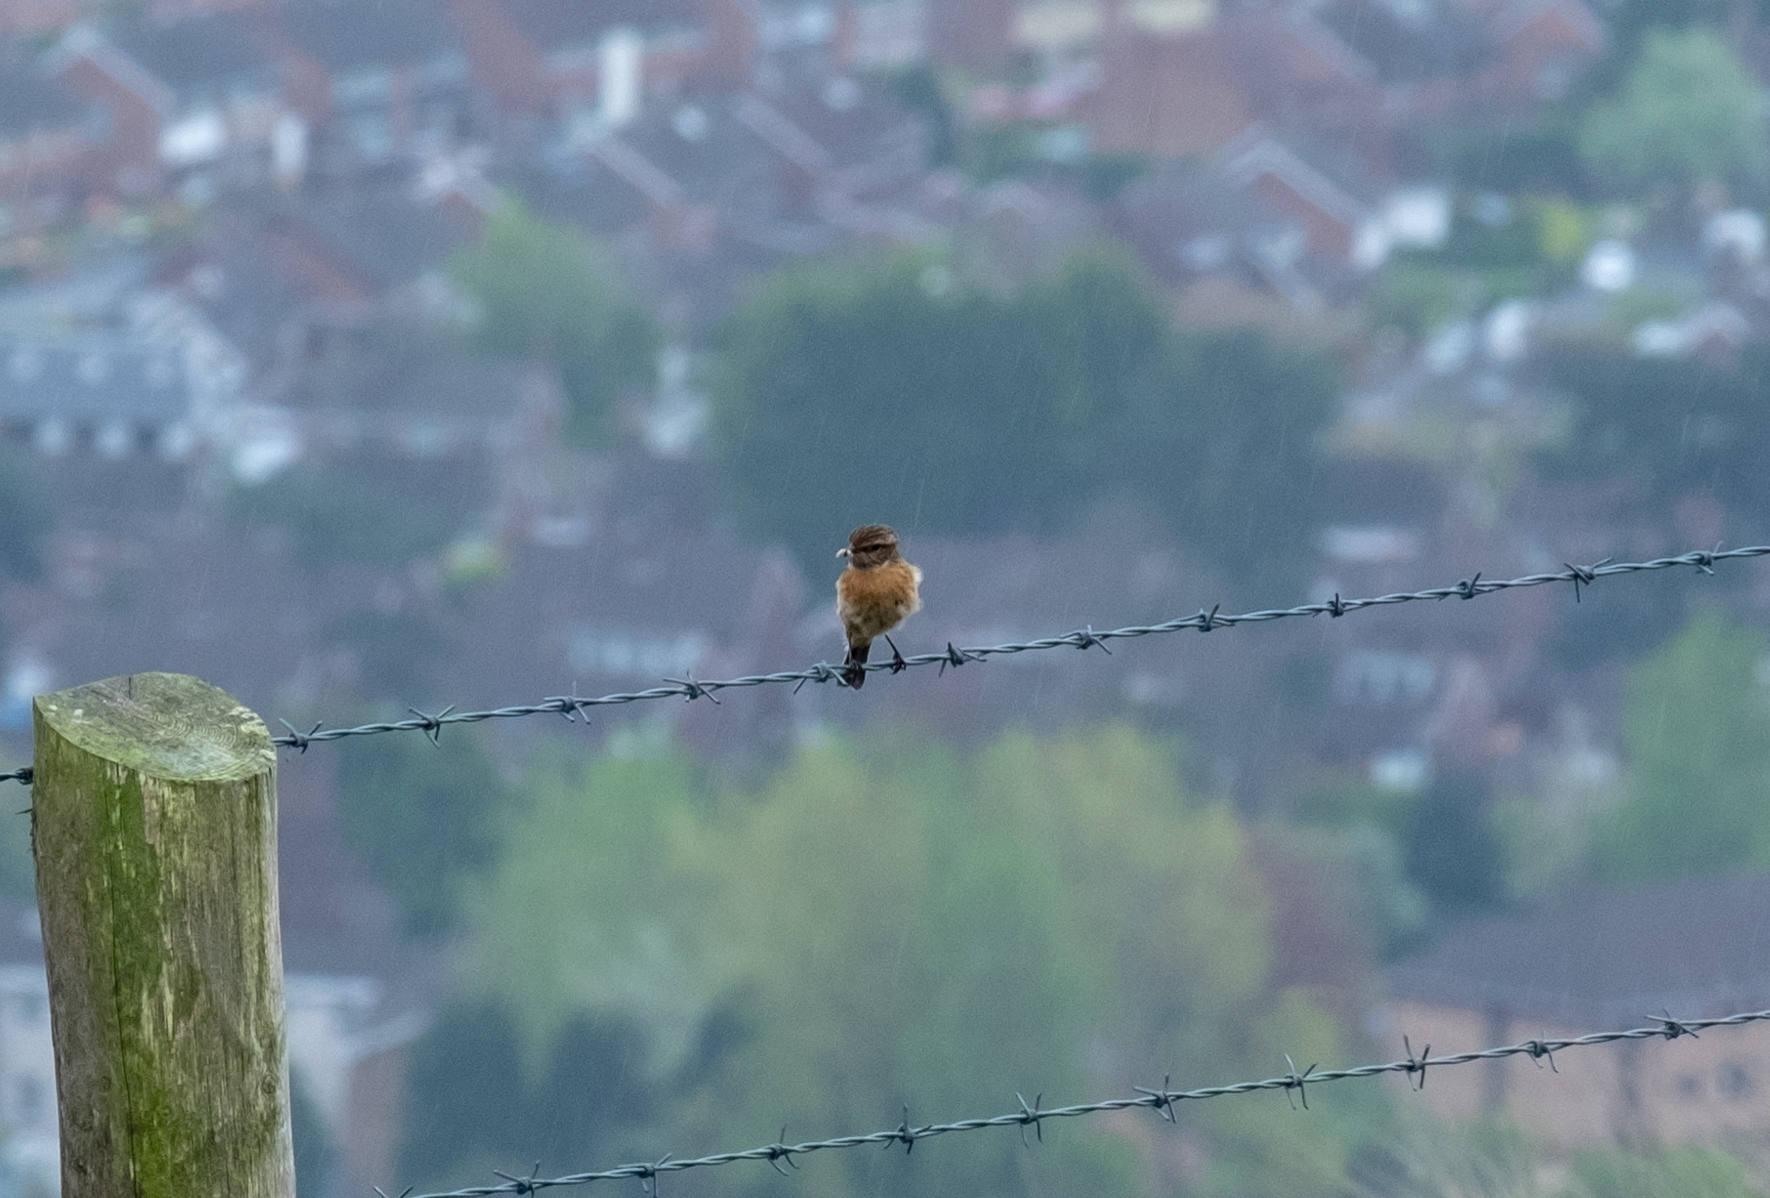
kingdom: Animalia
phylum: Chordata
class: Aves
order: Passeriformes
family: Muscicapidae
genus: Saxicola
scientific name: Saxicola rubicola
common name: European stonechat
